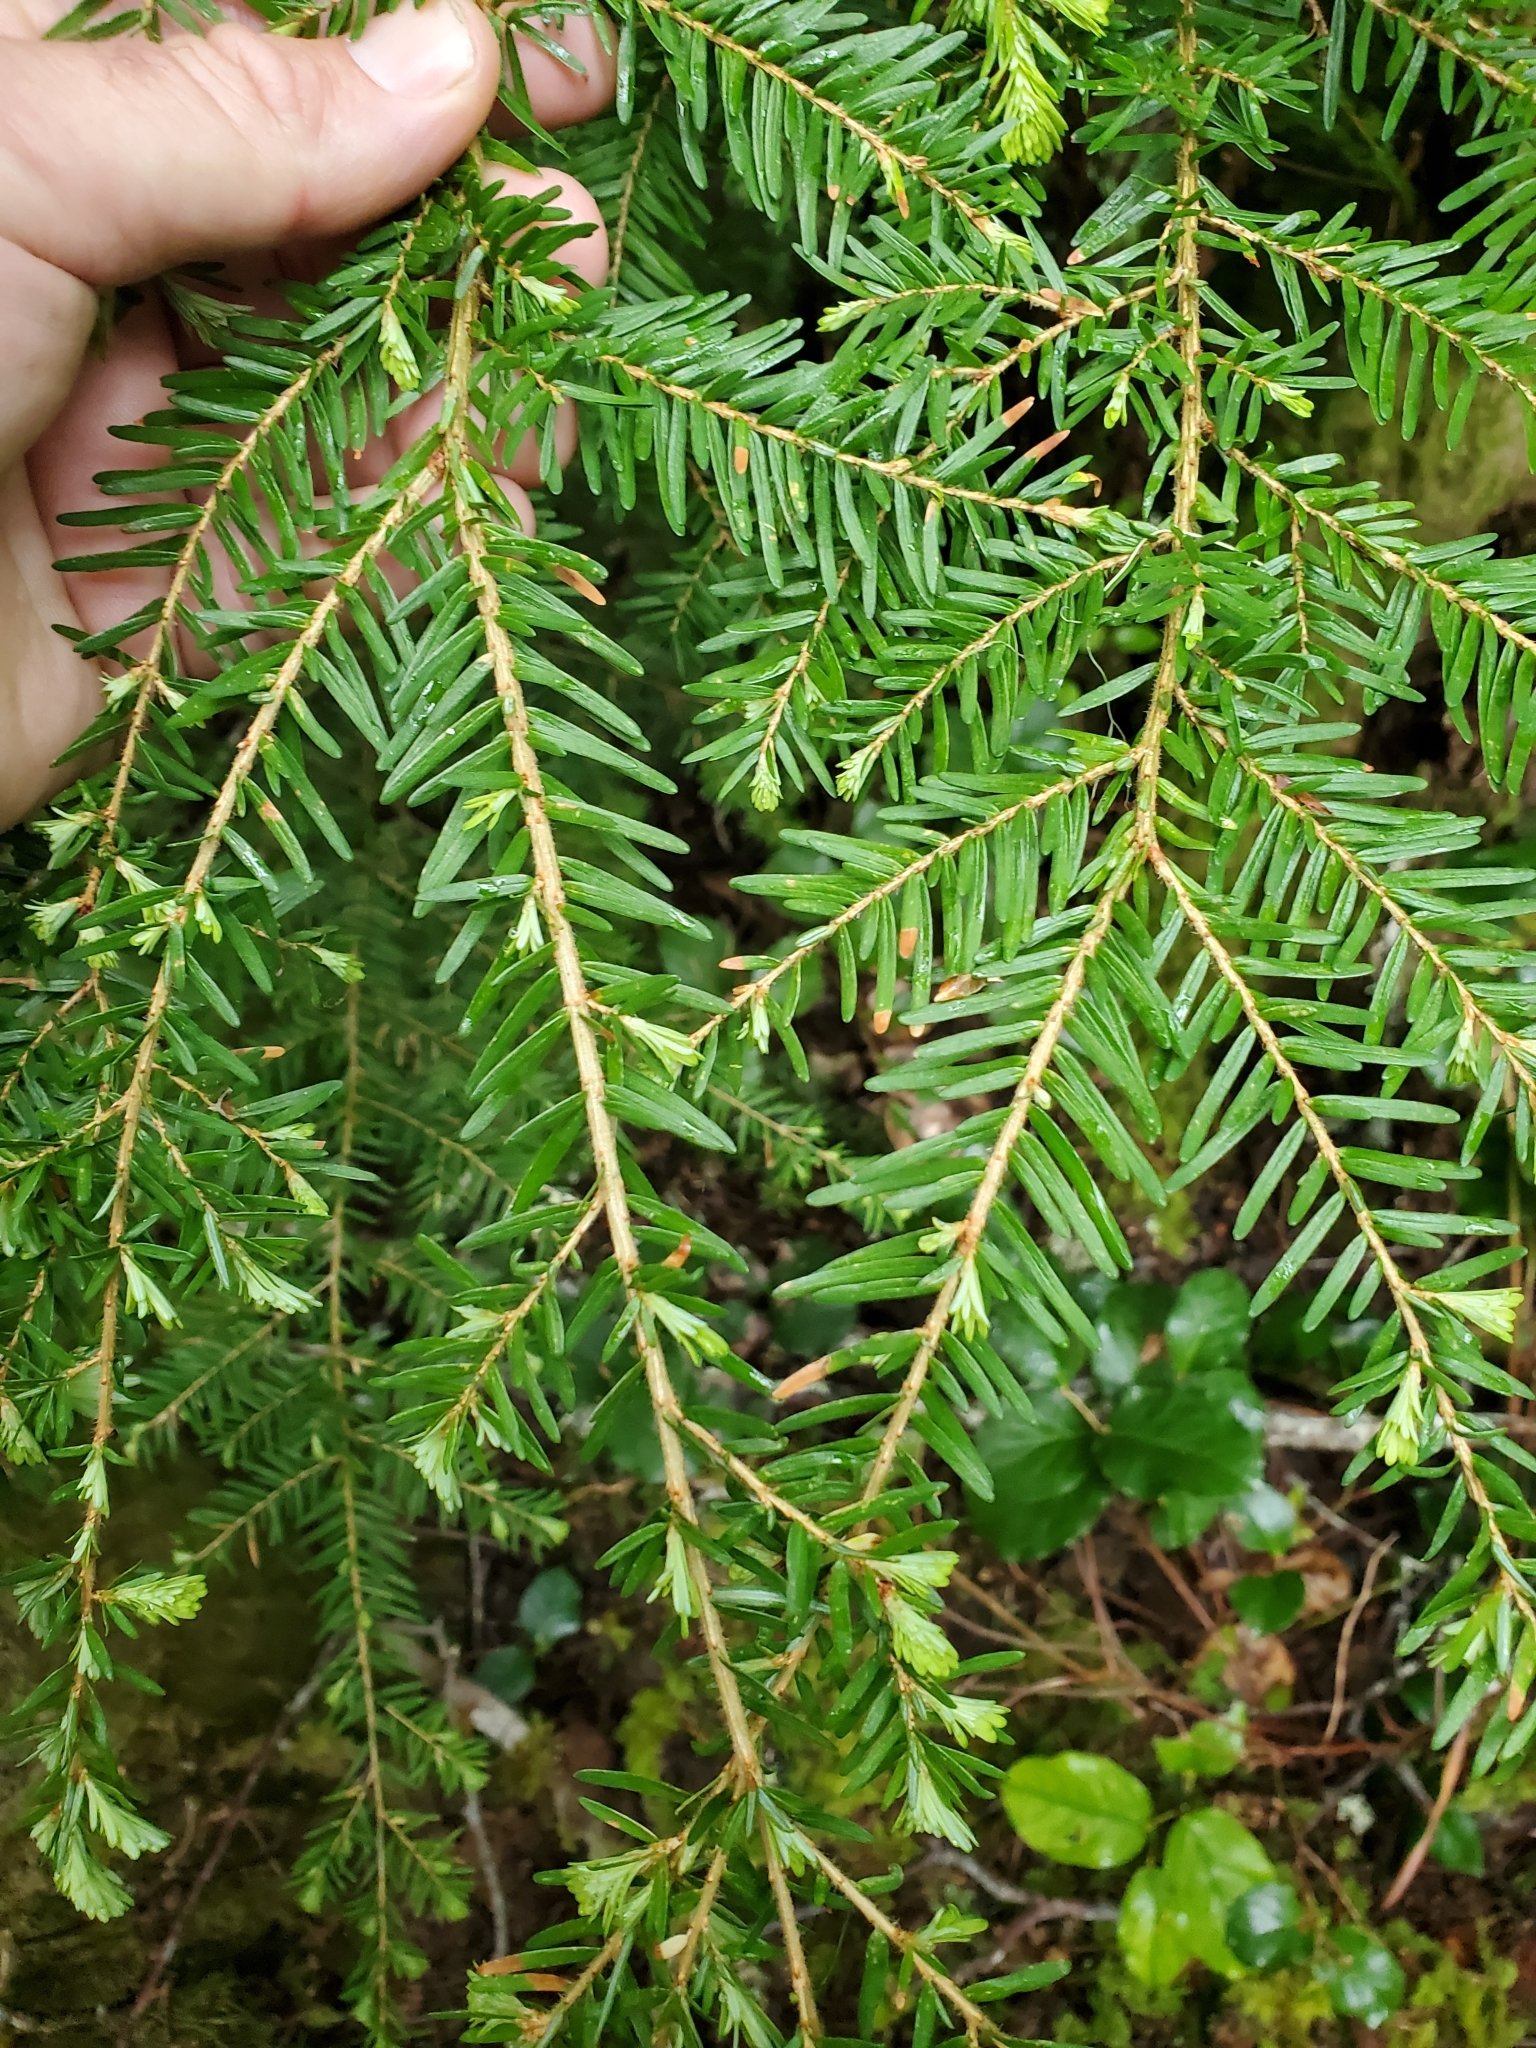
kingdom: Plantae
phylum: Tracheophyta
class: Pinopsida
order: Pinales
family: Pinaceae
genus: Tsuga
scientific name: Tsuga heterophylla
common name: Western hemlock
